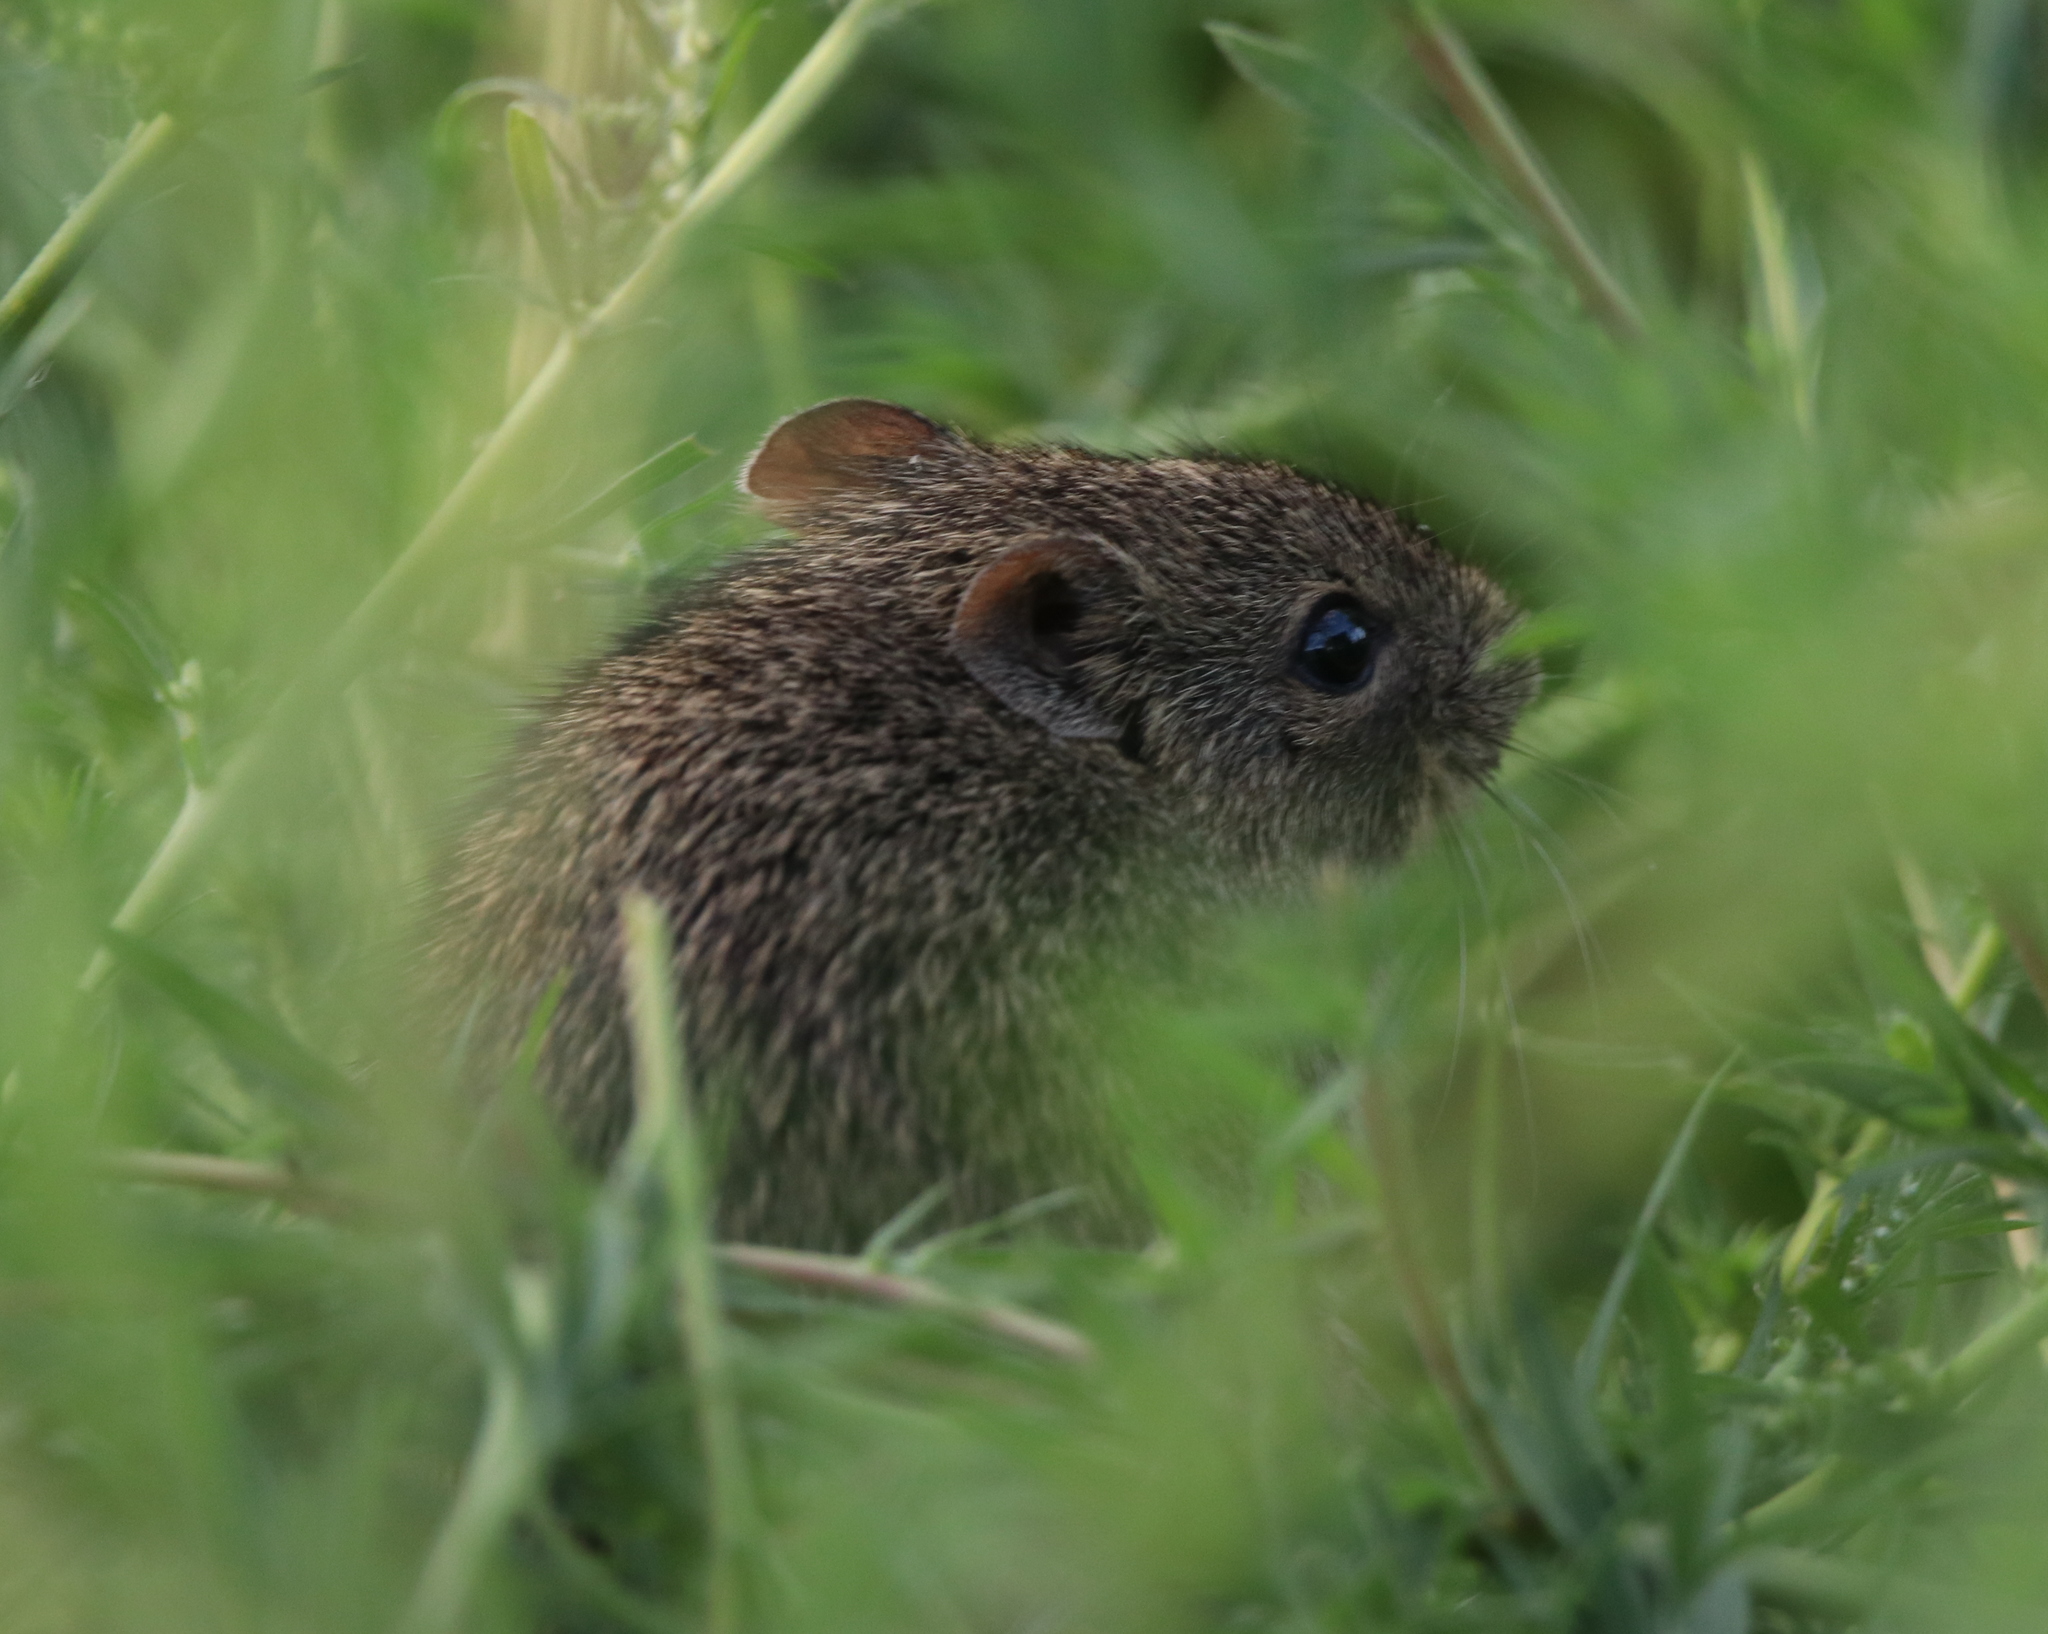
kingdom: Animalia
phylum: Chordata
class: Mammalia
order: Rodentia
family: Cricetidae
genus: Sigmodon
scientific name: Sigmodon hispidus
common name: Hispid cotton rat
